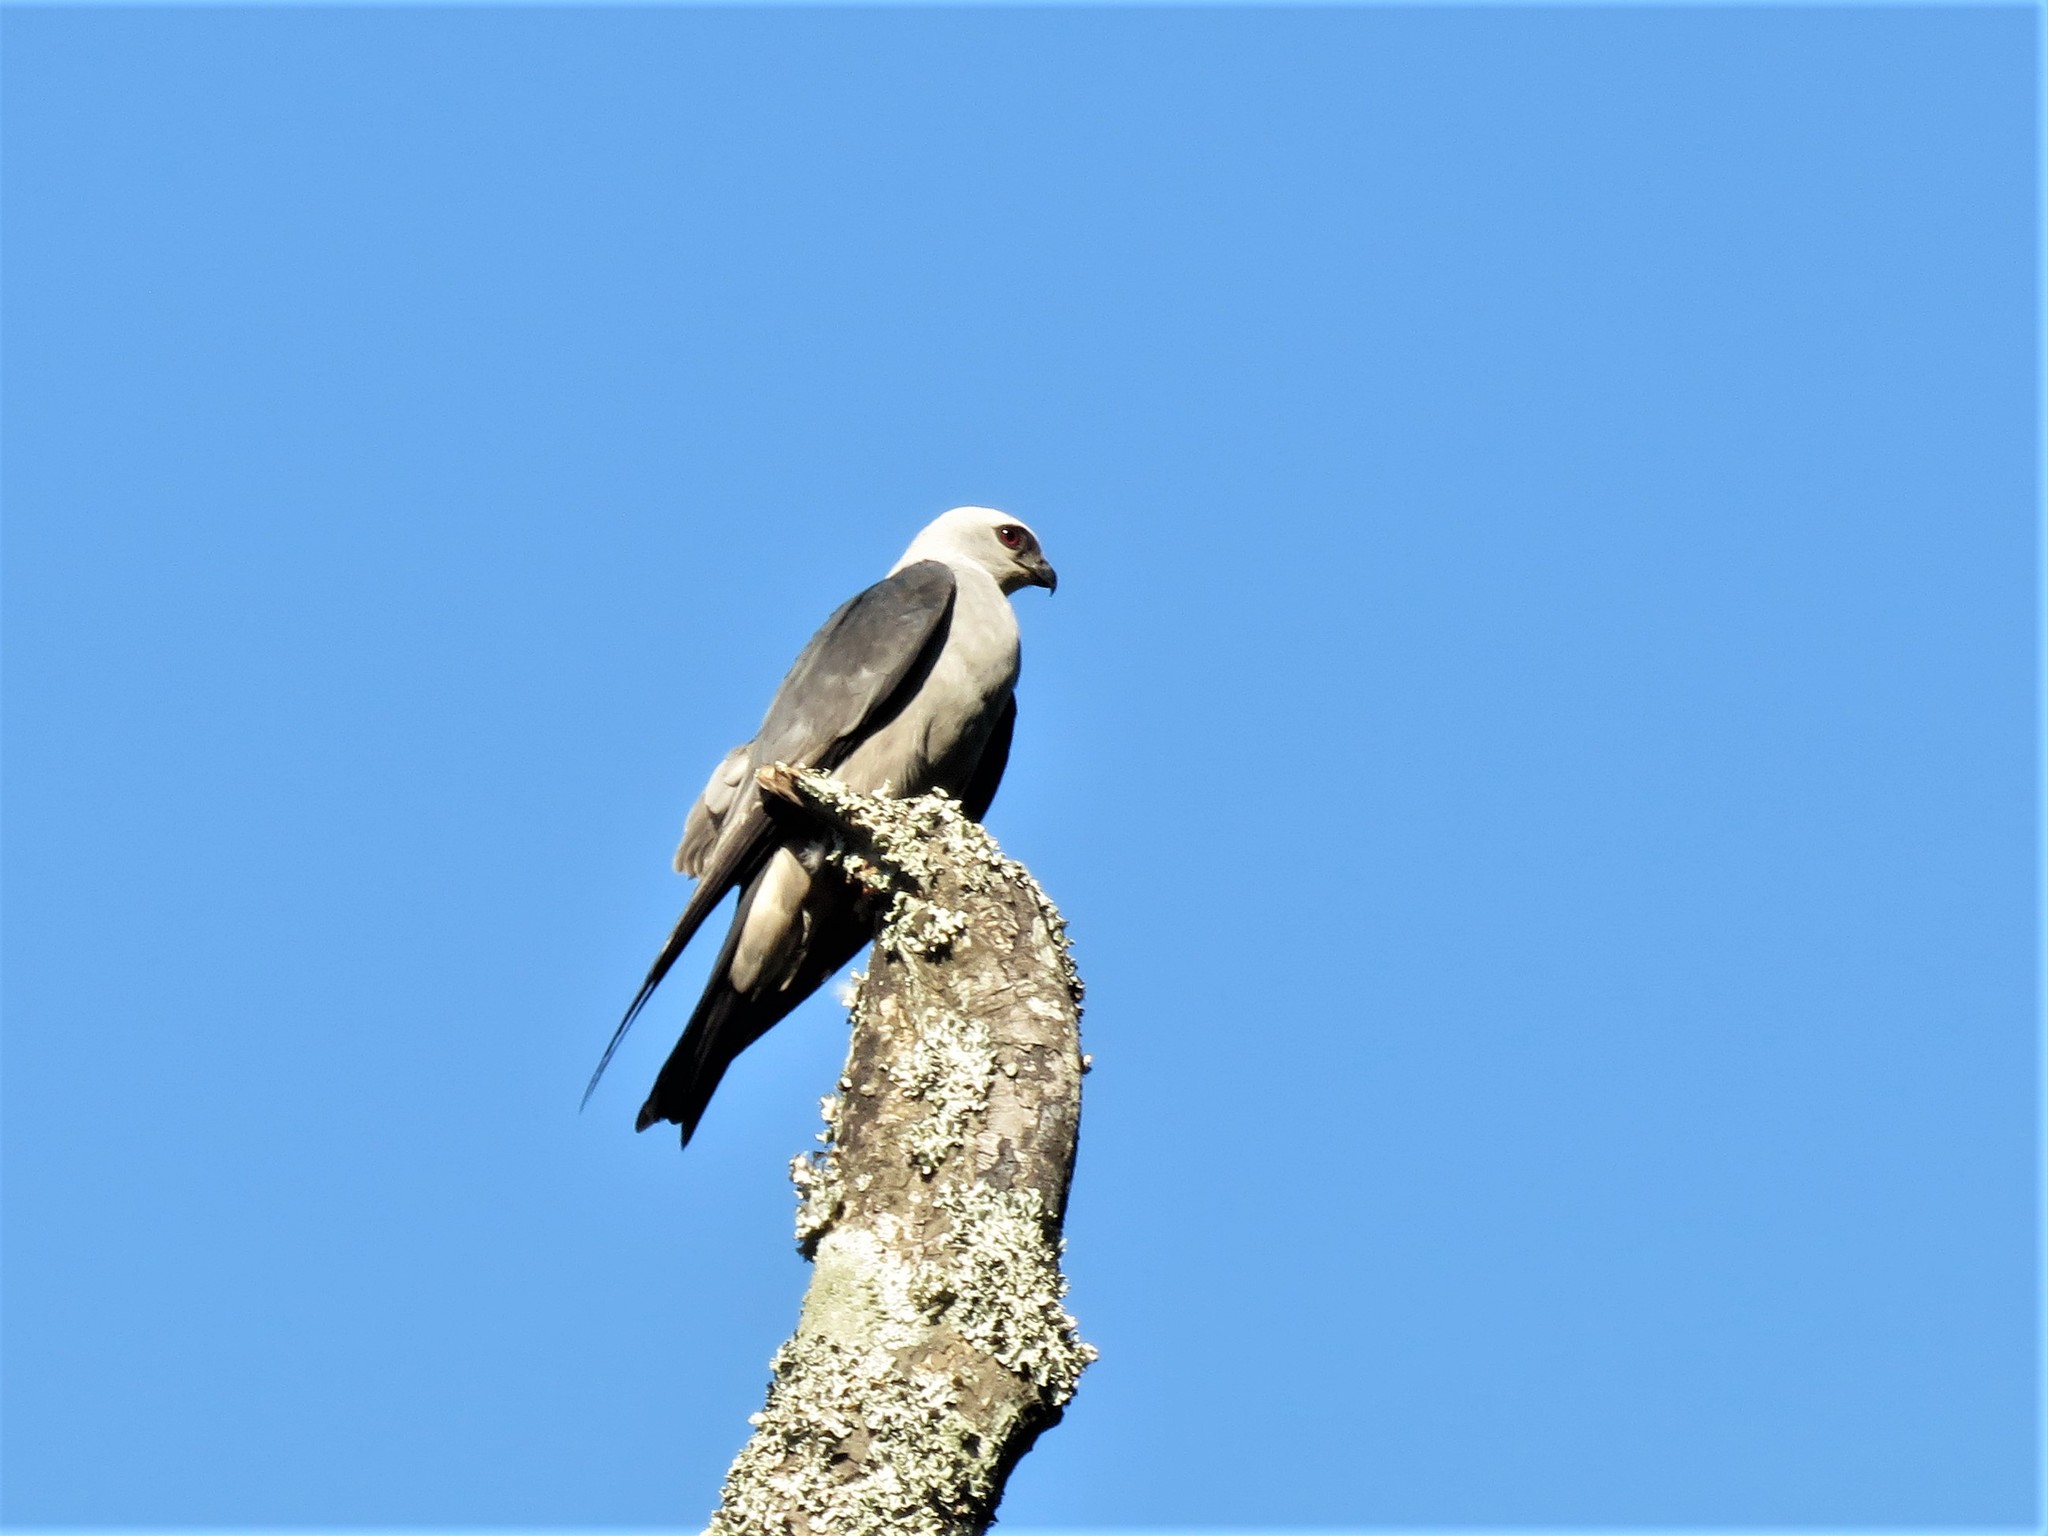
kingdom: Animalia
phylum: Chordata
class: Aves
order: Accipitriformes
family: Accipitridae
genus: Ictinia
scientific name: Ictinia mississippiensis
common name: Mississippi kite
